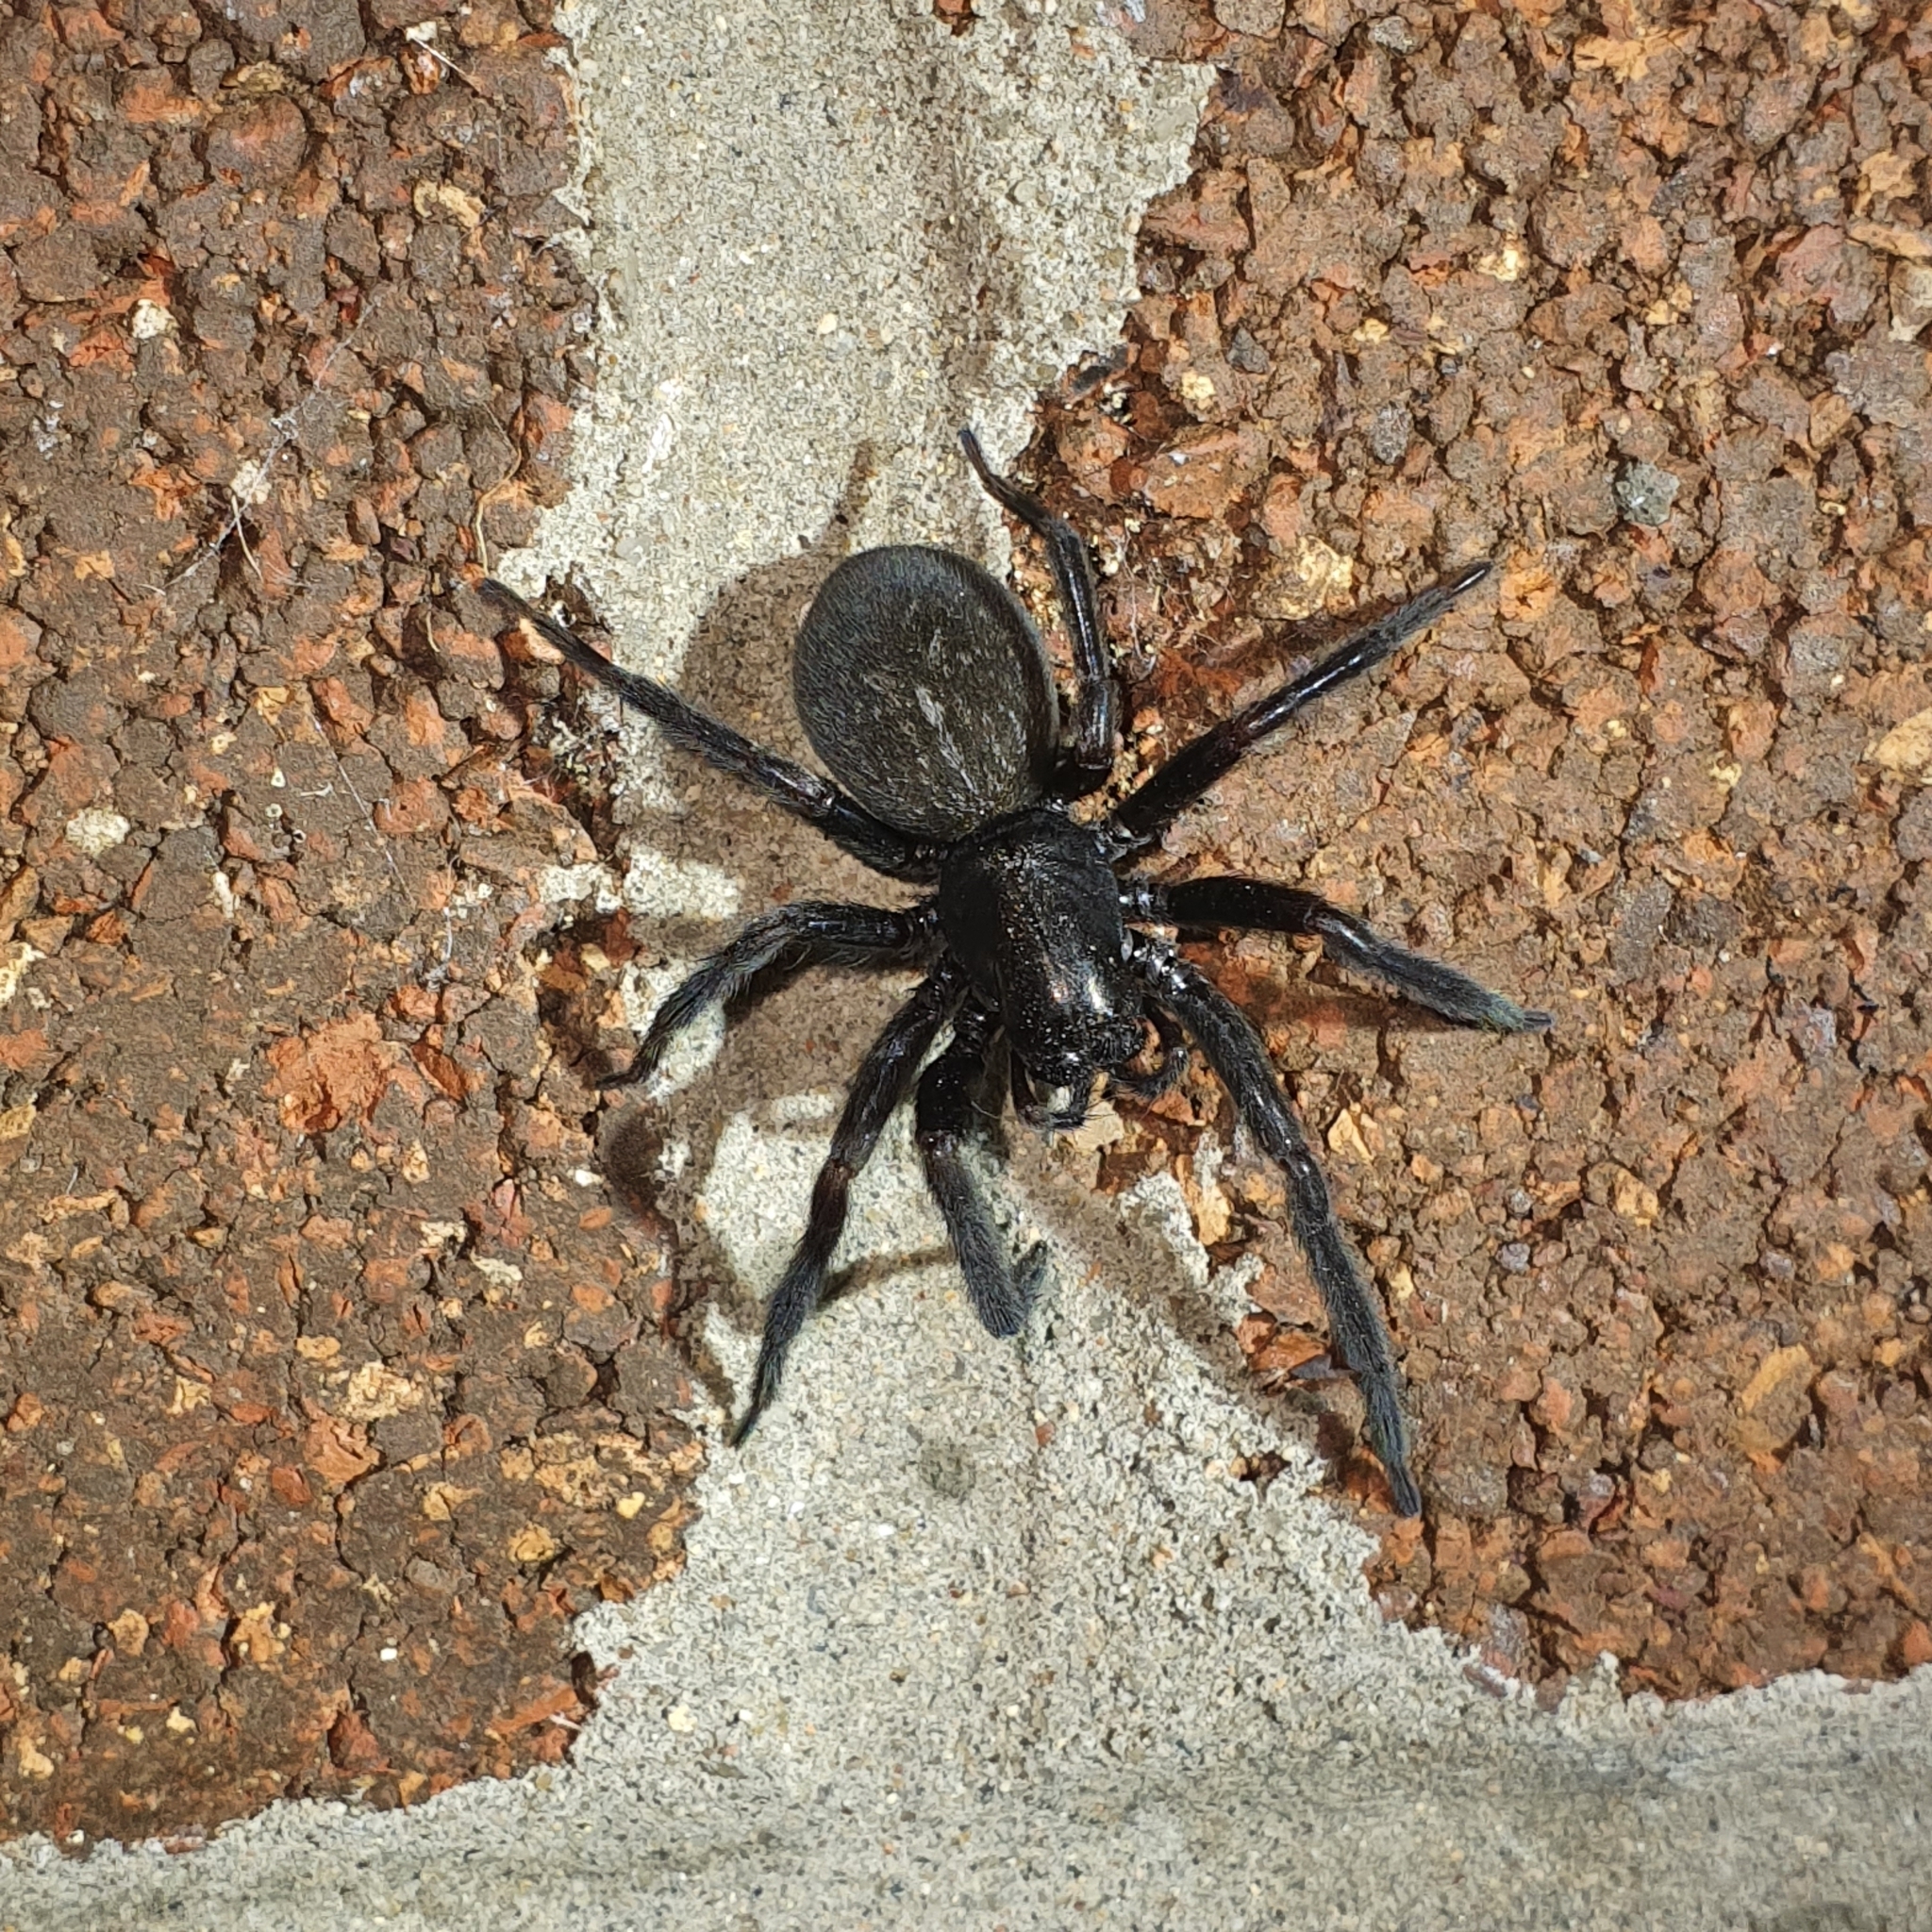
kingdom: Animalia
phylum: Arthropoda
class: Arachnida
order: Araneae
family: Desidae
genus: Badumna
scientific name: Badumna insignis
